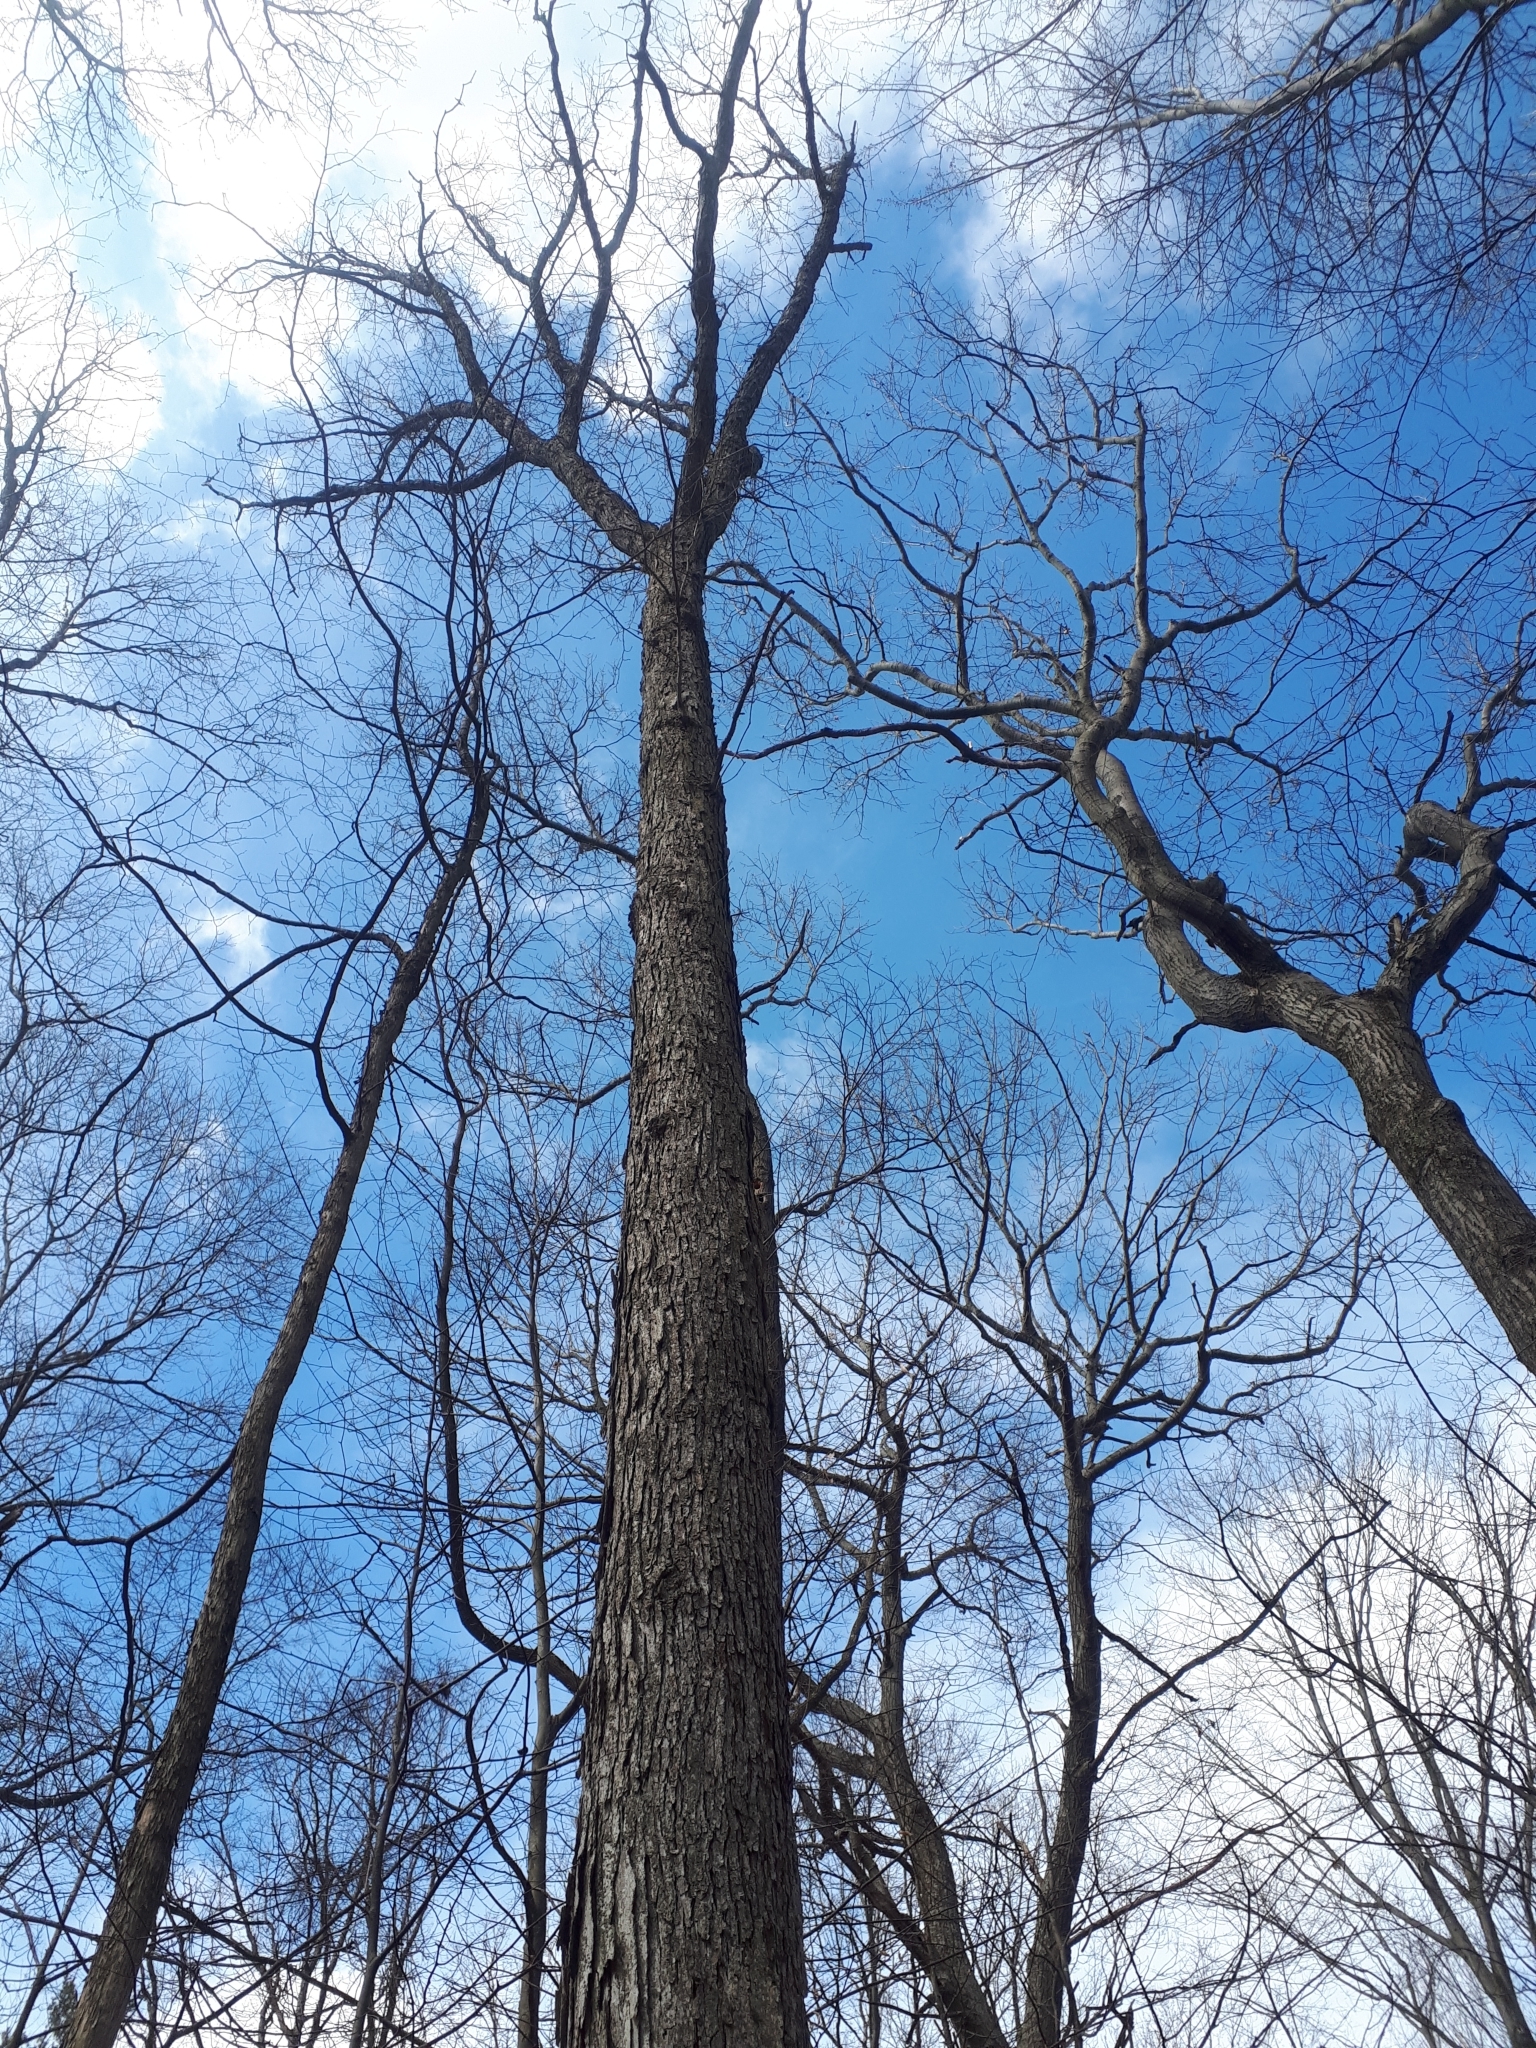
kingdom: Plantae
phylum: Tracheophyta
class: Magnoliopsida
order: Fagales
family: Fagaceae
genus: Quercus
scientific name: Quercus alba
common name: White oak
